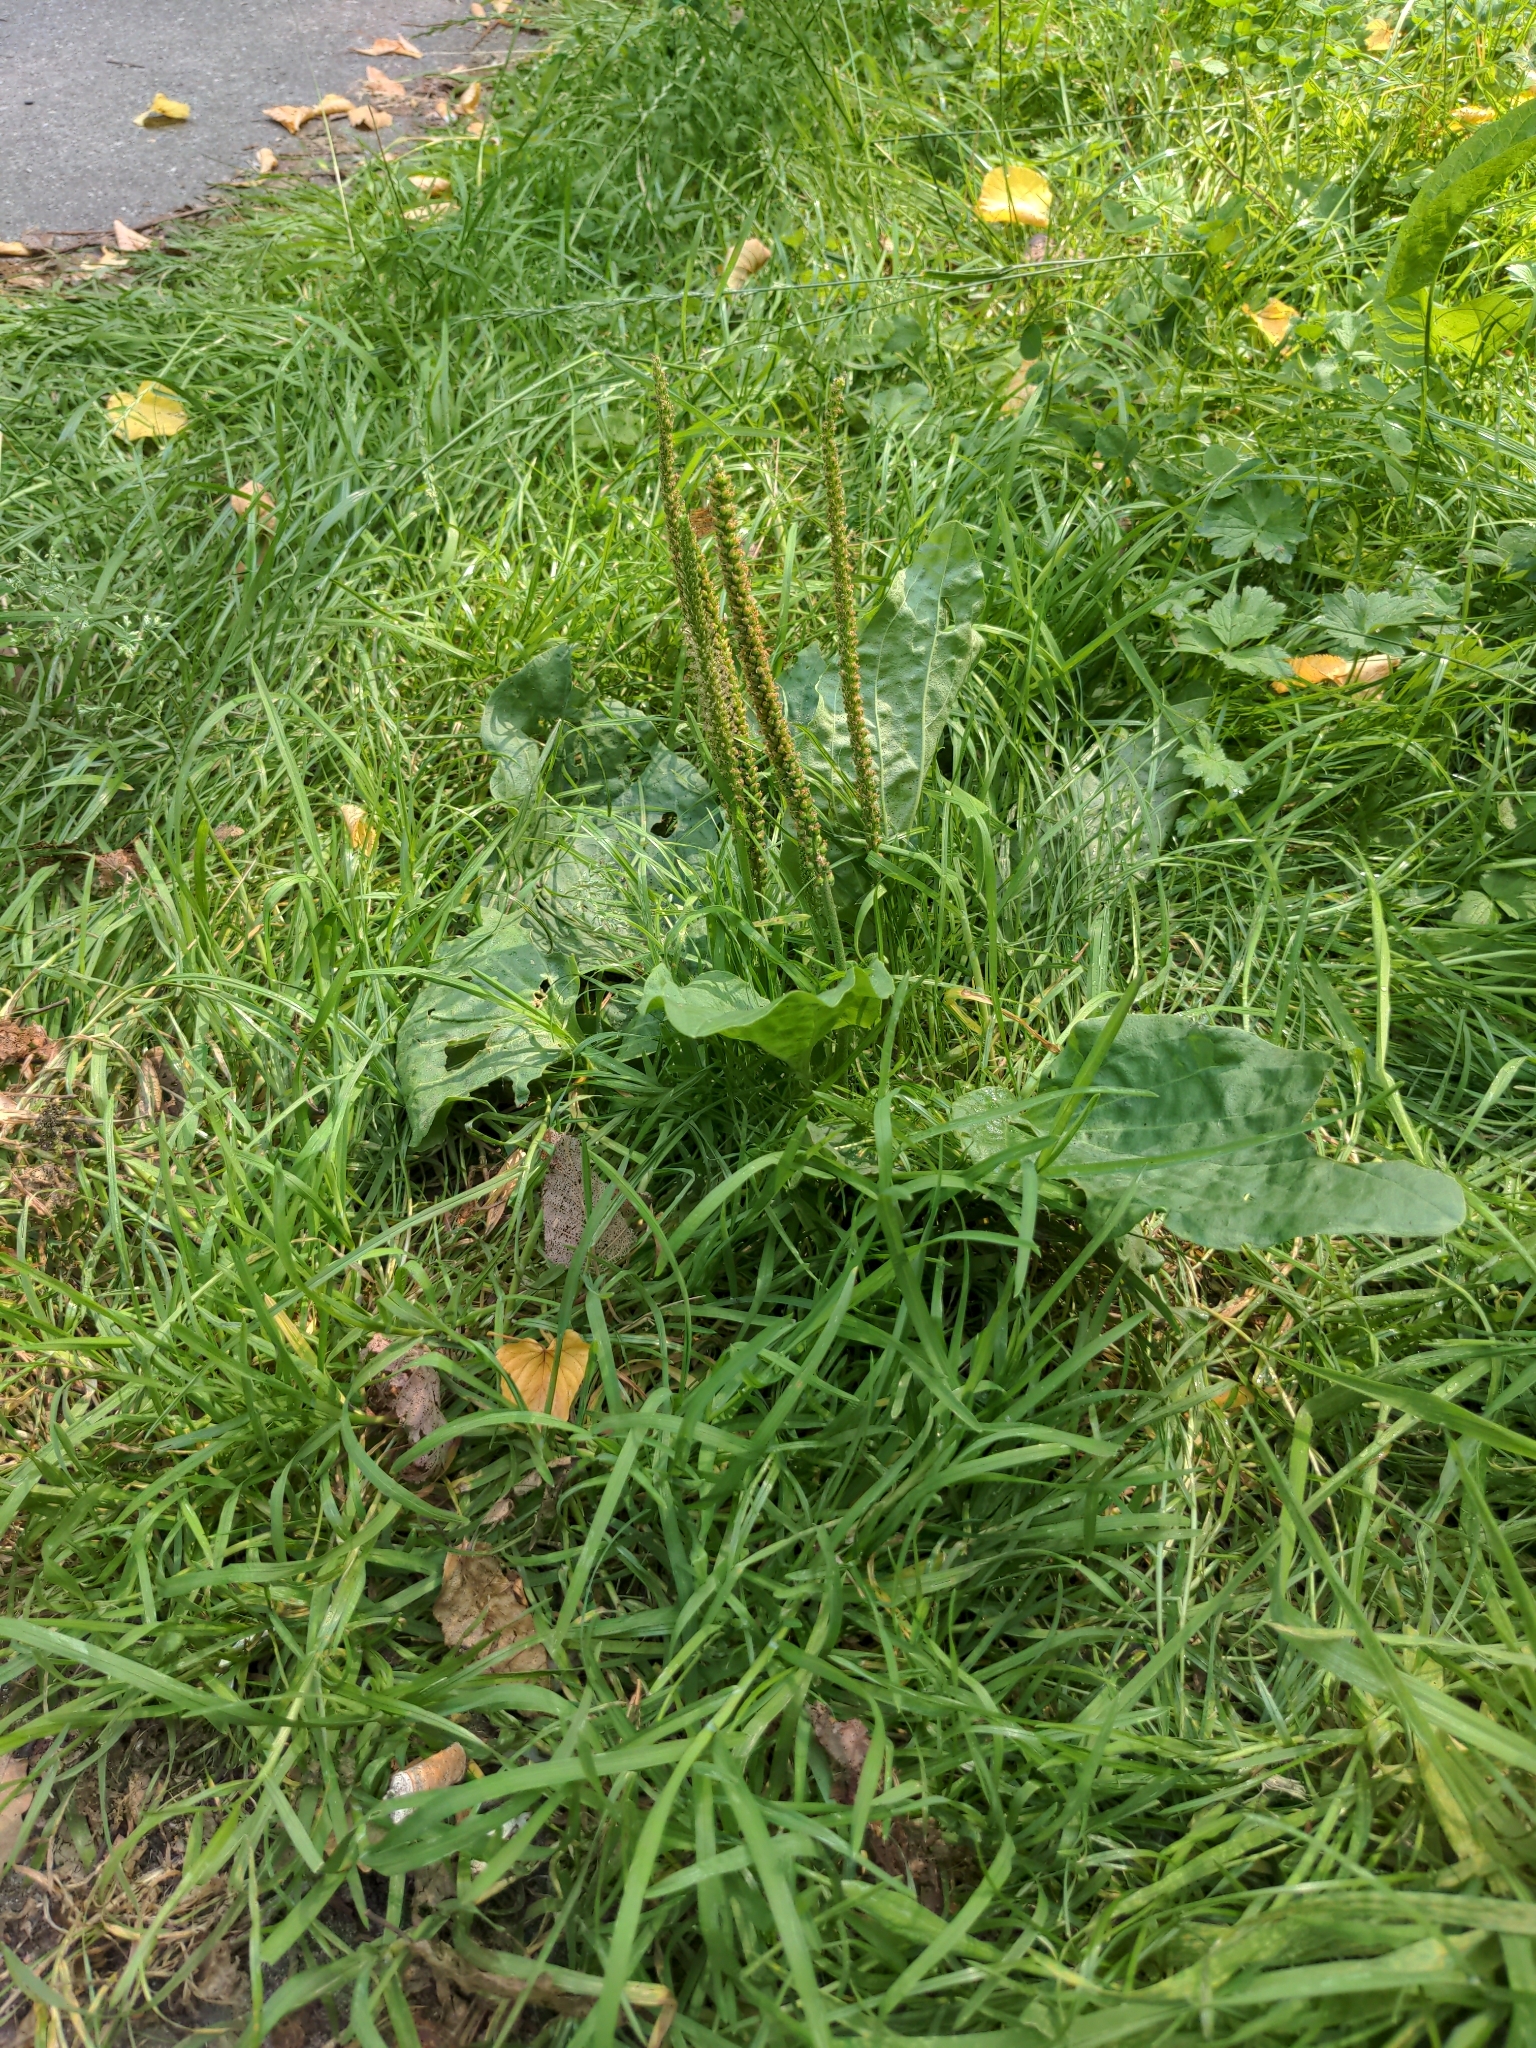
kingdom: Plantae
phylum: Tracheophyta
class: Magnoliopsida
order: Lamiales
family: Plantaginaceae
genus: Plantago
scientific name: Plantago major
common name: Common plantain
